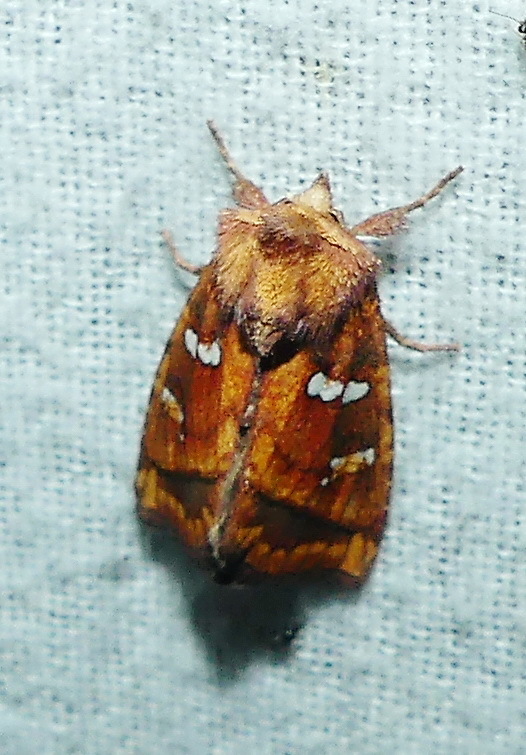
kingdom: Animalia
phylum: Arthropoda
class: Insecta
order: Lepidoptera
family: Noctuidae
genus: Papaipema
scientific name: Papaipema pterisii
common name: Bracken borer moth
